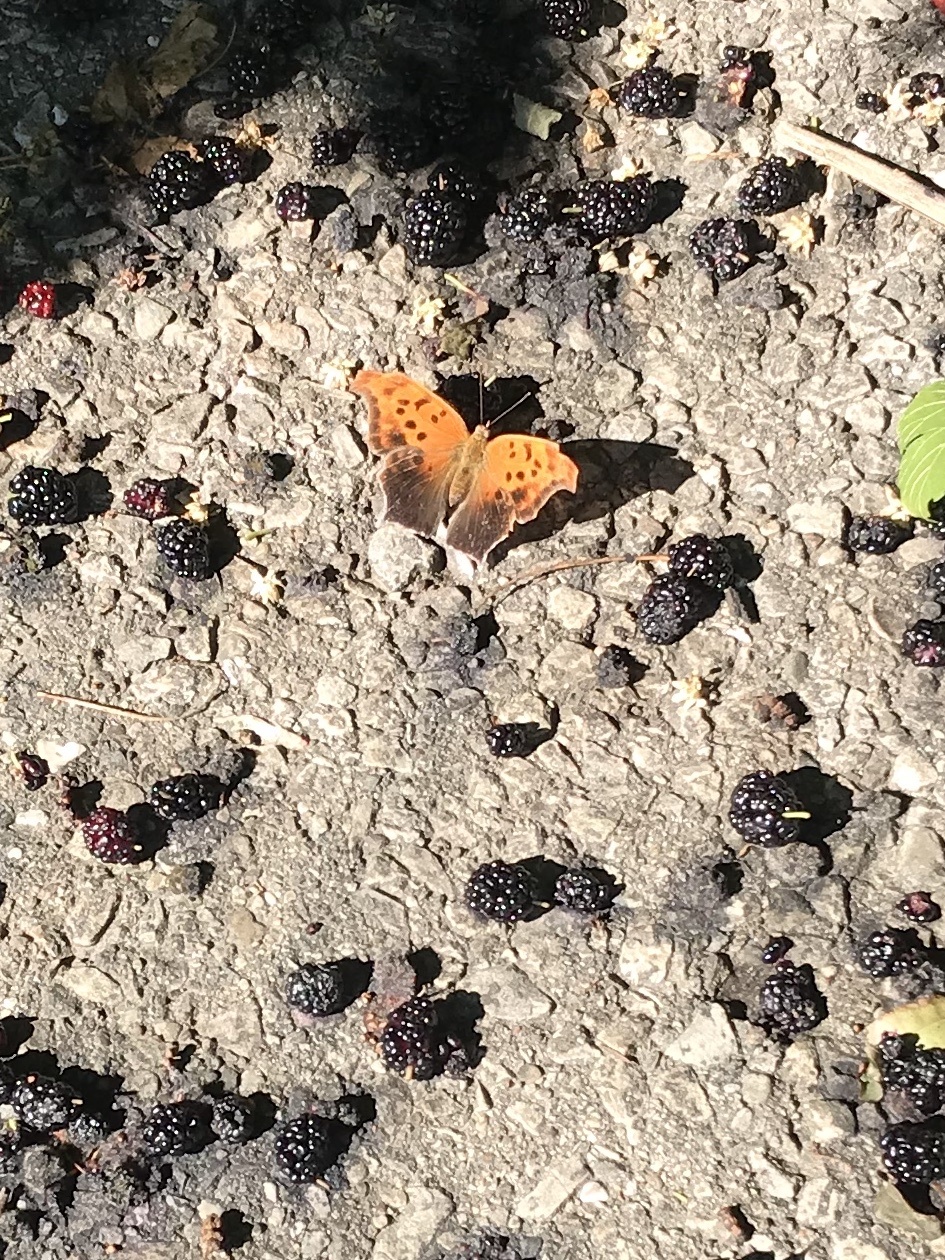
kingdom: Animalia
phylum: Arthropoda
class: Insecta
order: Lepidoptera
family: Nymphalidae
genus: Polygonia
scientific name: Polygonia interrogationis
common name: Question mark
